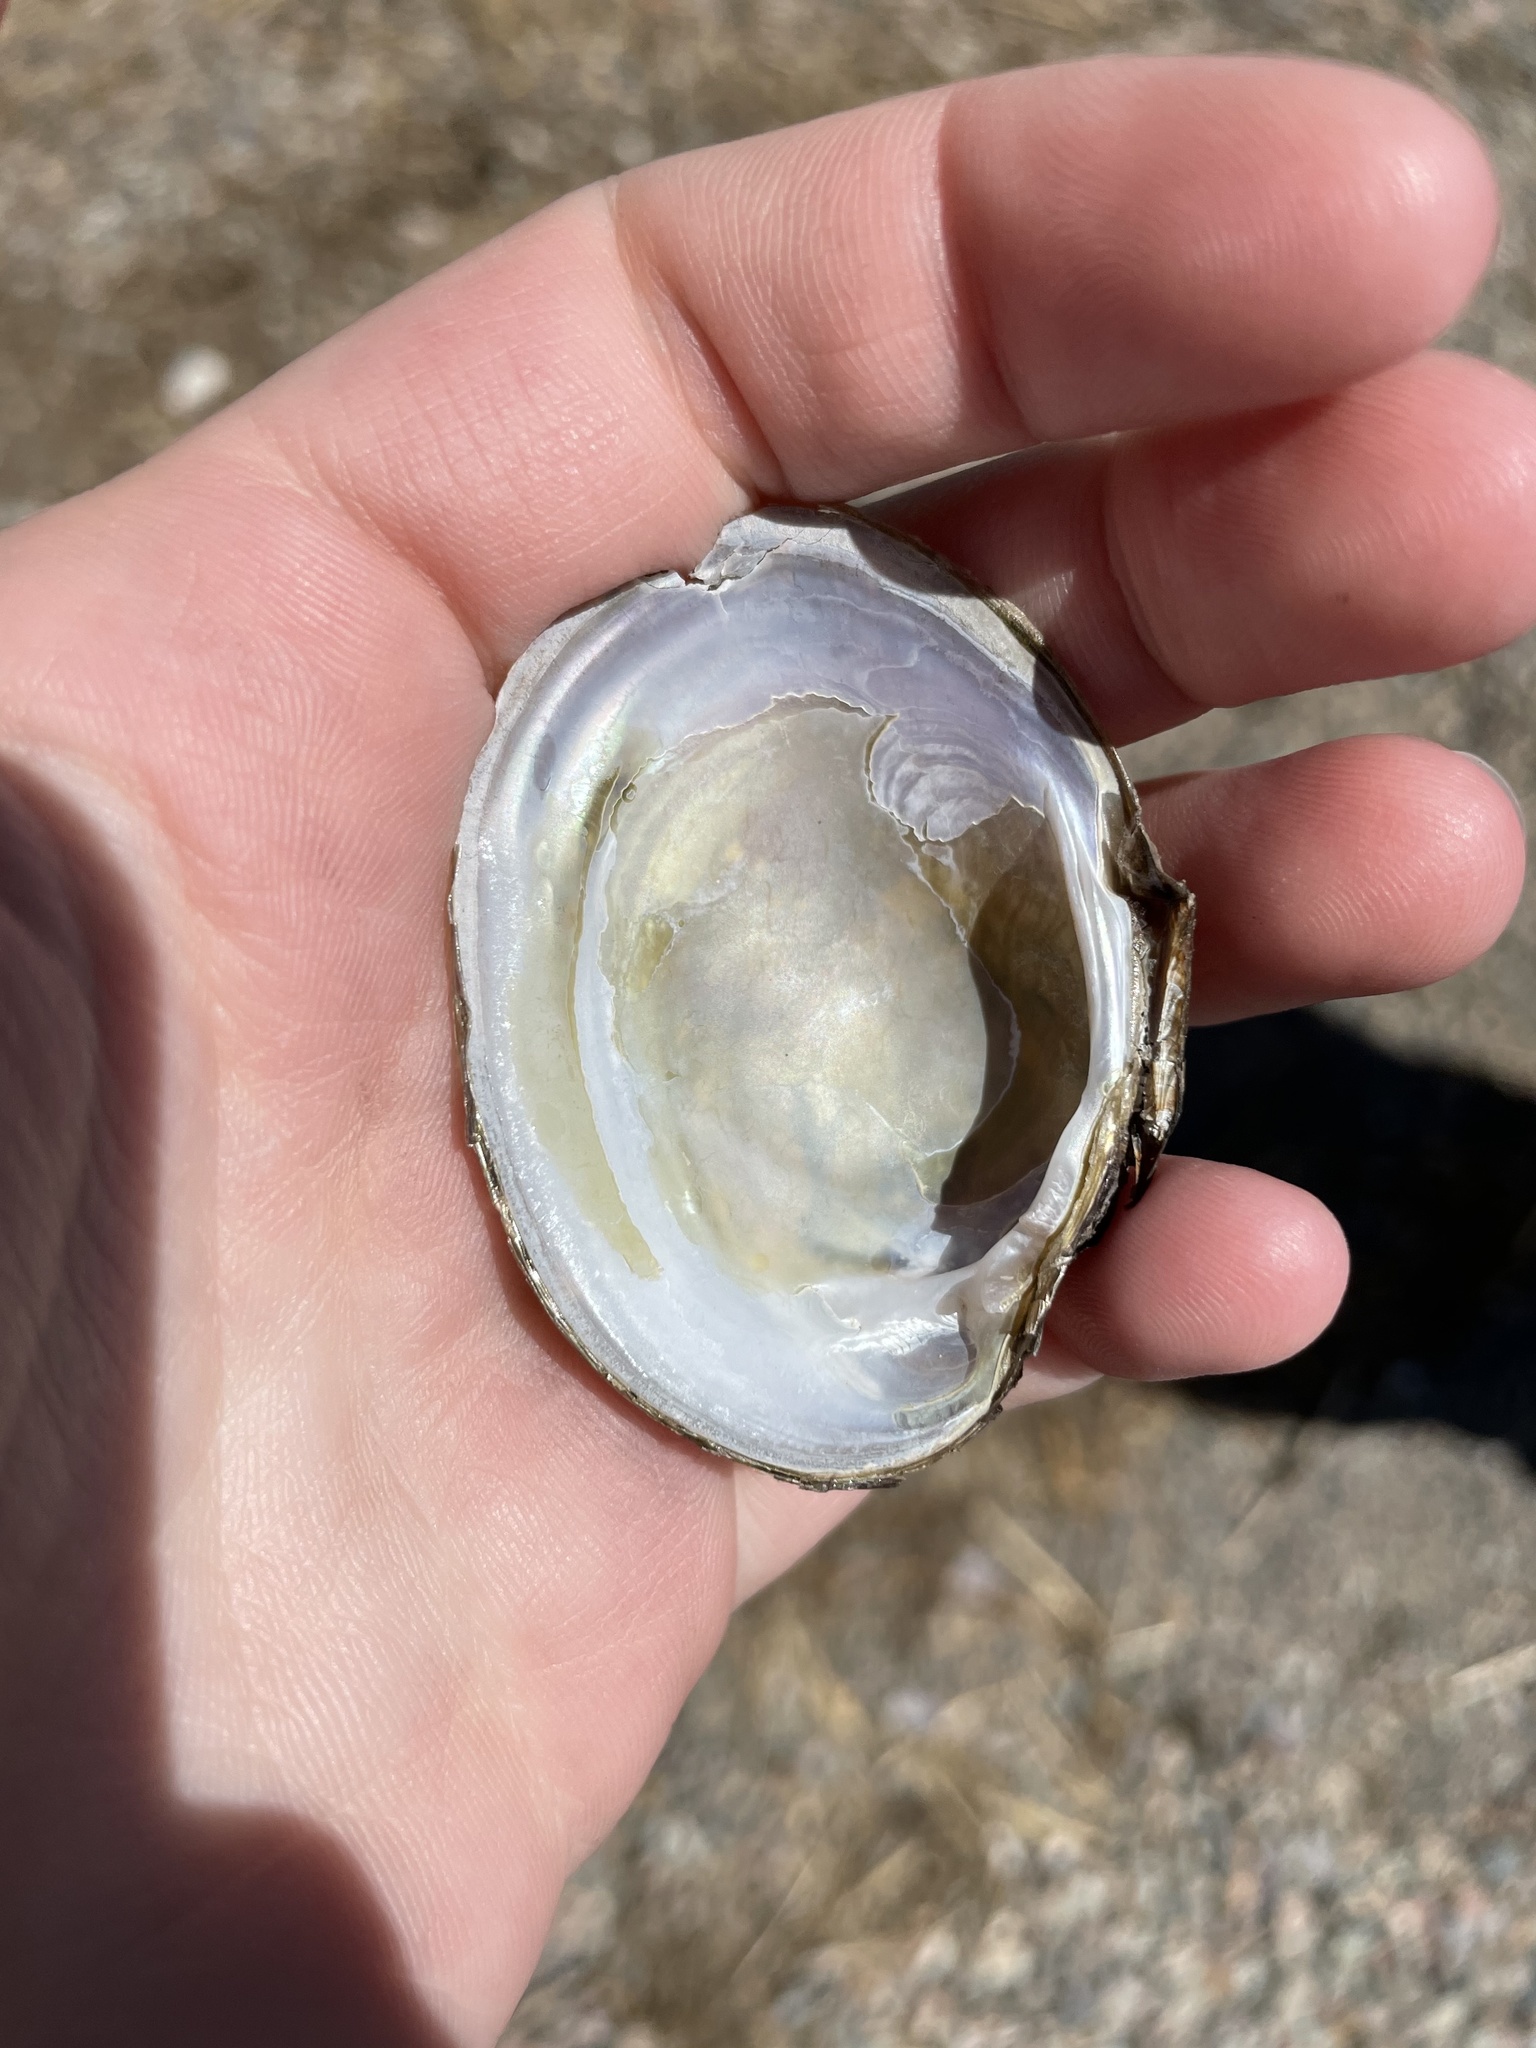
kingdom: Animalia
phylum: Mollusca
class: Bivalvia
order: Unionida
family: Unionidae
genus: Lampsilis
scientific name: Lampsilis cariosa
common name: Yellow lampmussel
